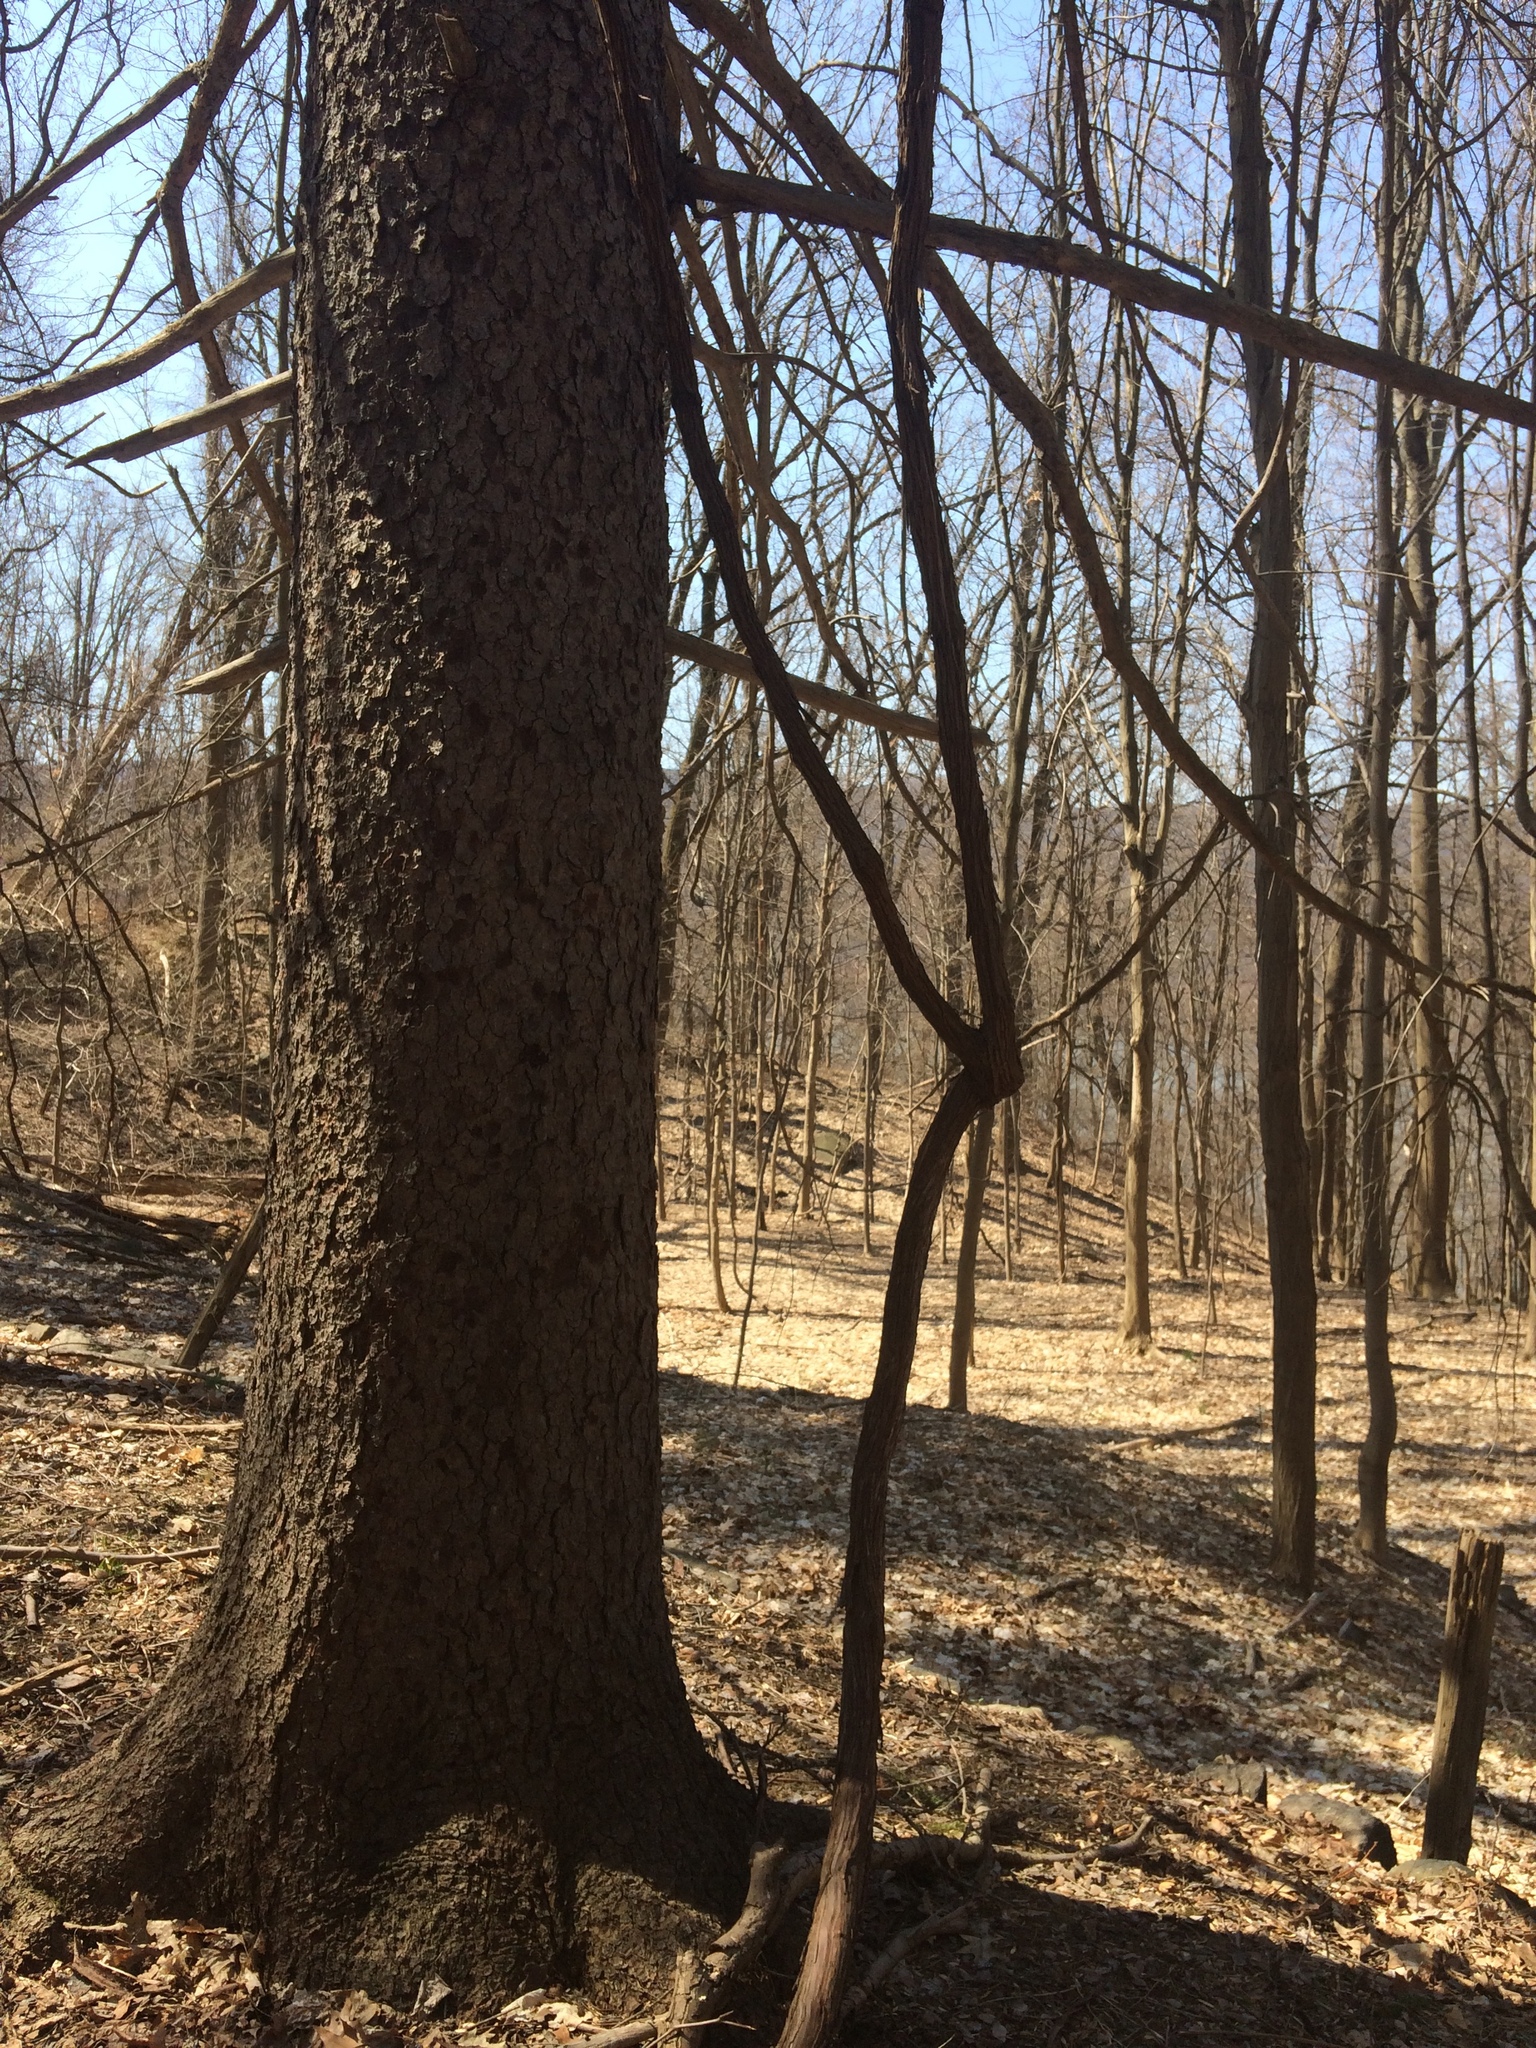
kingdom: Plantae
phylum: Tracheophyta
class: Magnoliopsida
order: Vitales
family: Vitaceae
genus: Vitis
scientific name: Vitis
